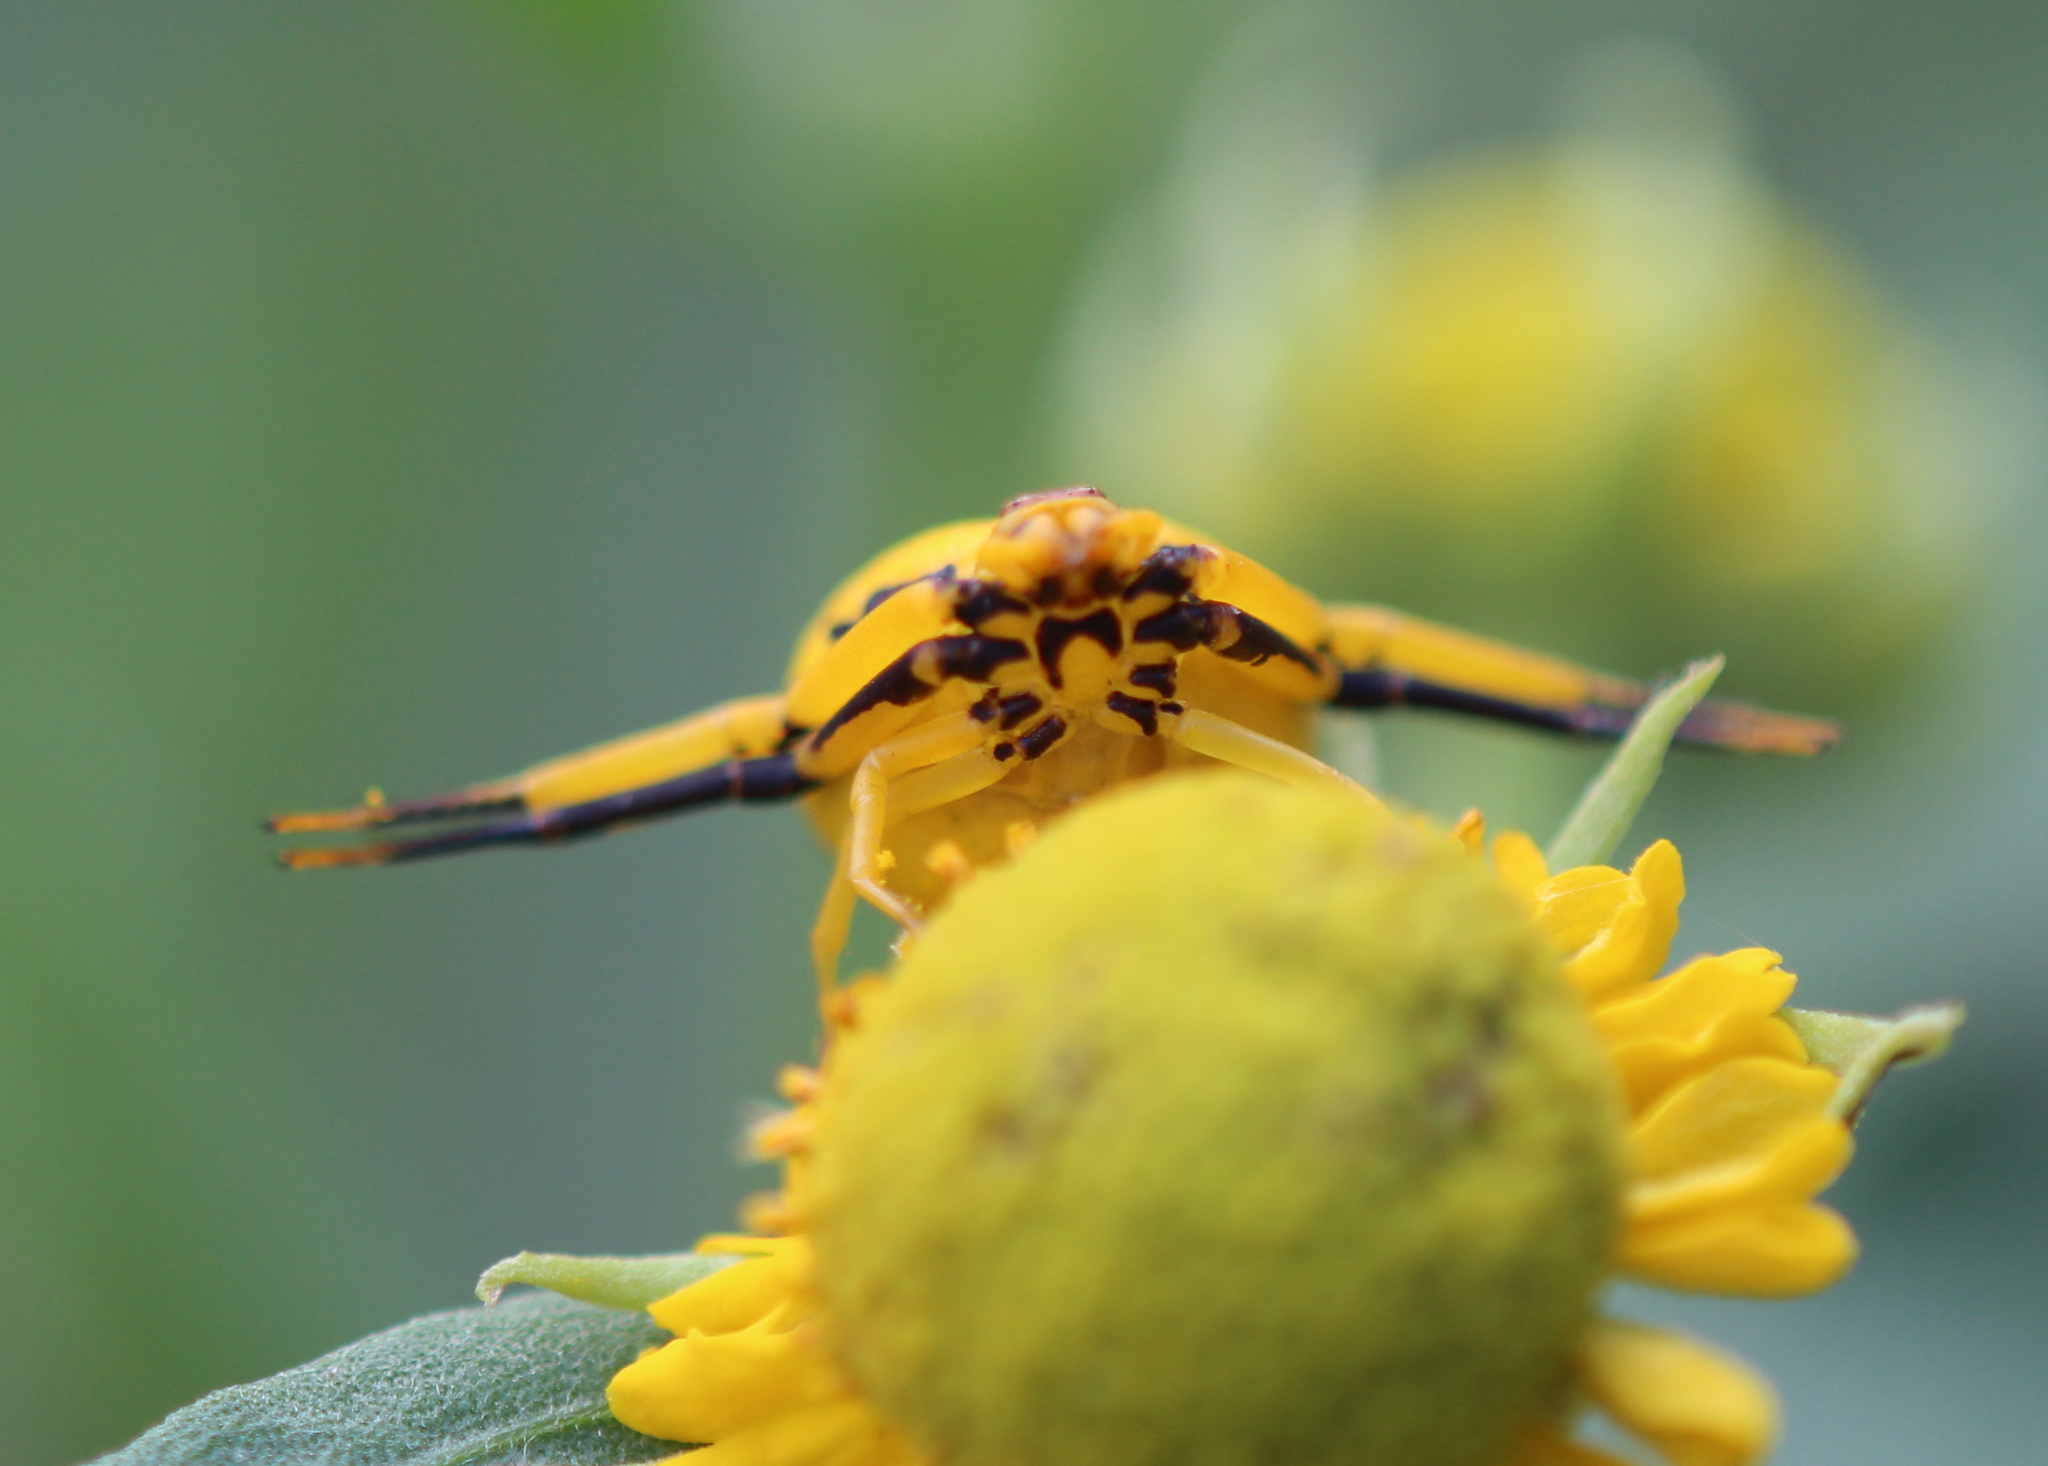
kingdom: Animalia
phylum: Arthropoda
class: Arachnida
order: Araneae
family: Thomisidae
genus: Misumenoides
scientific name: Misumenoides formosipes
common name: White-banded crab spider
